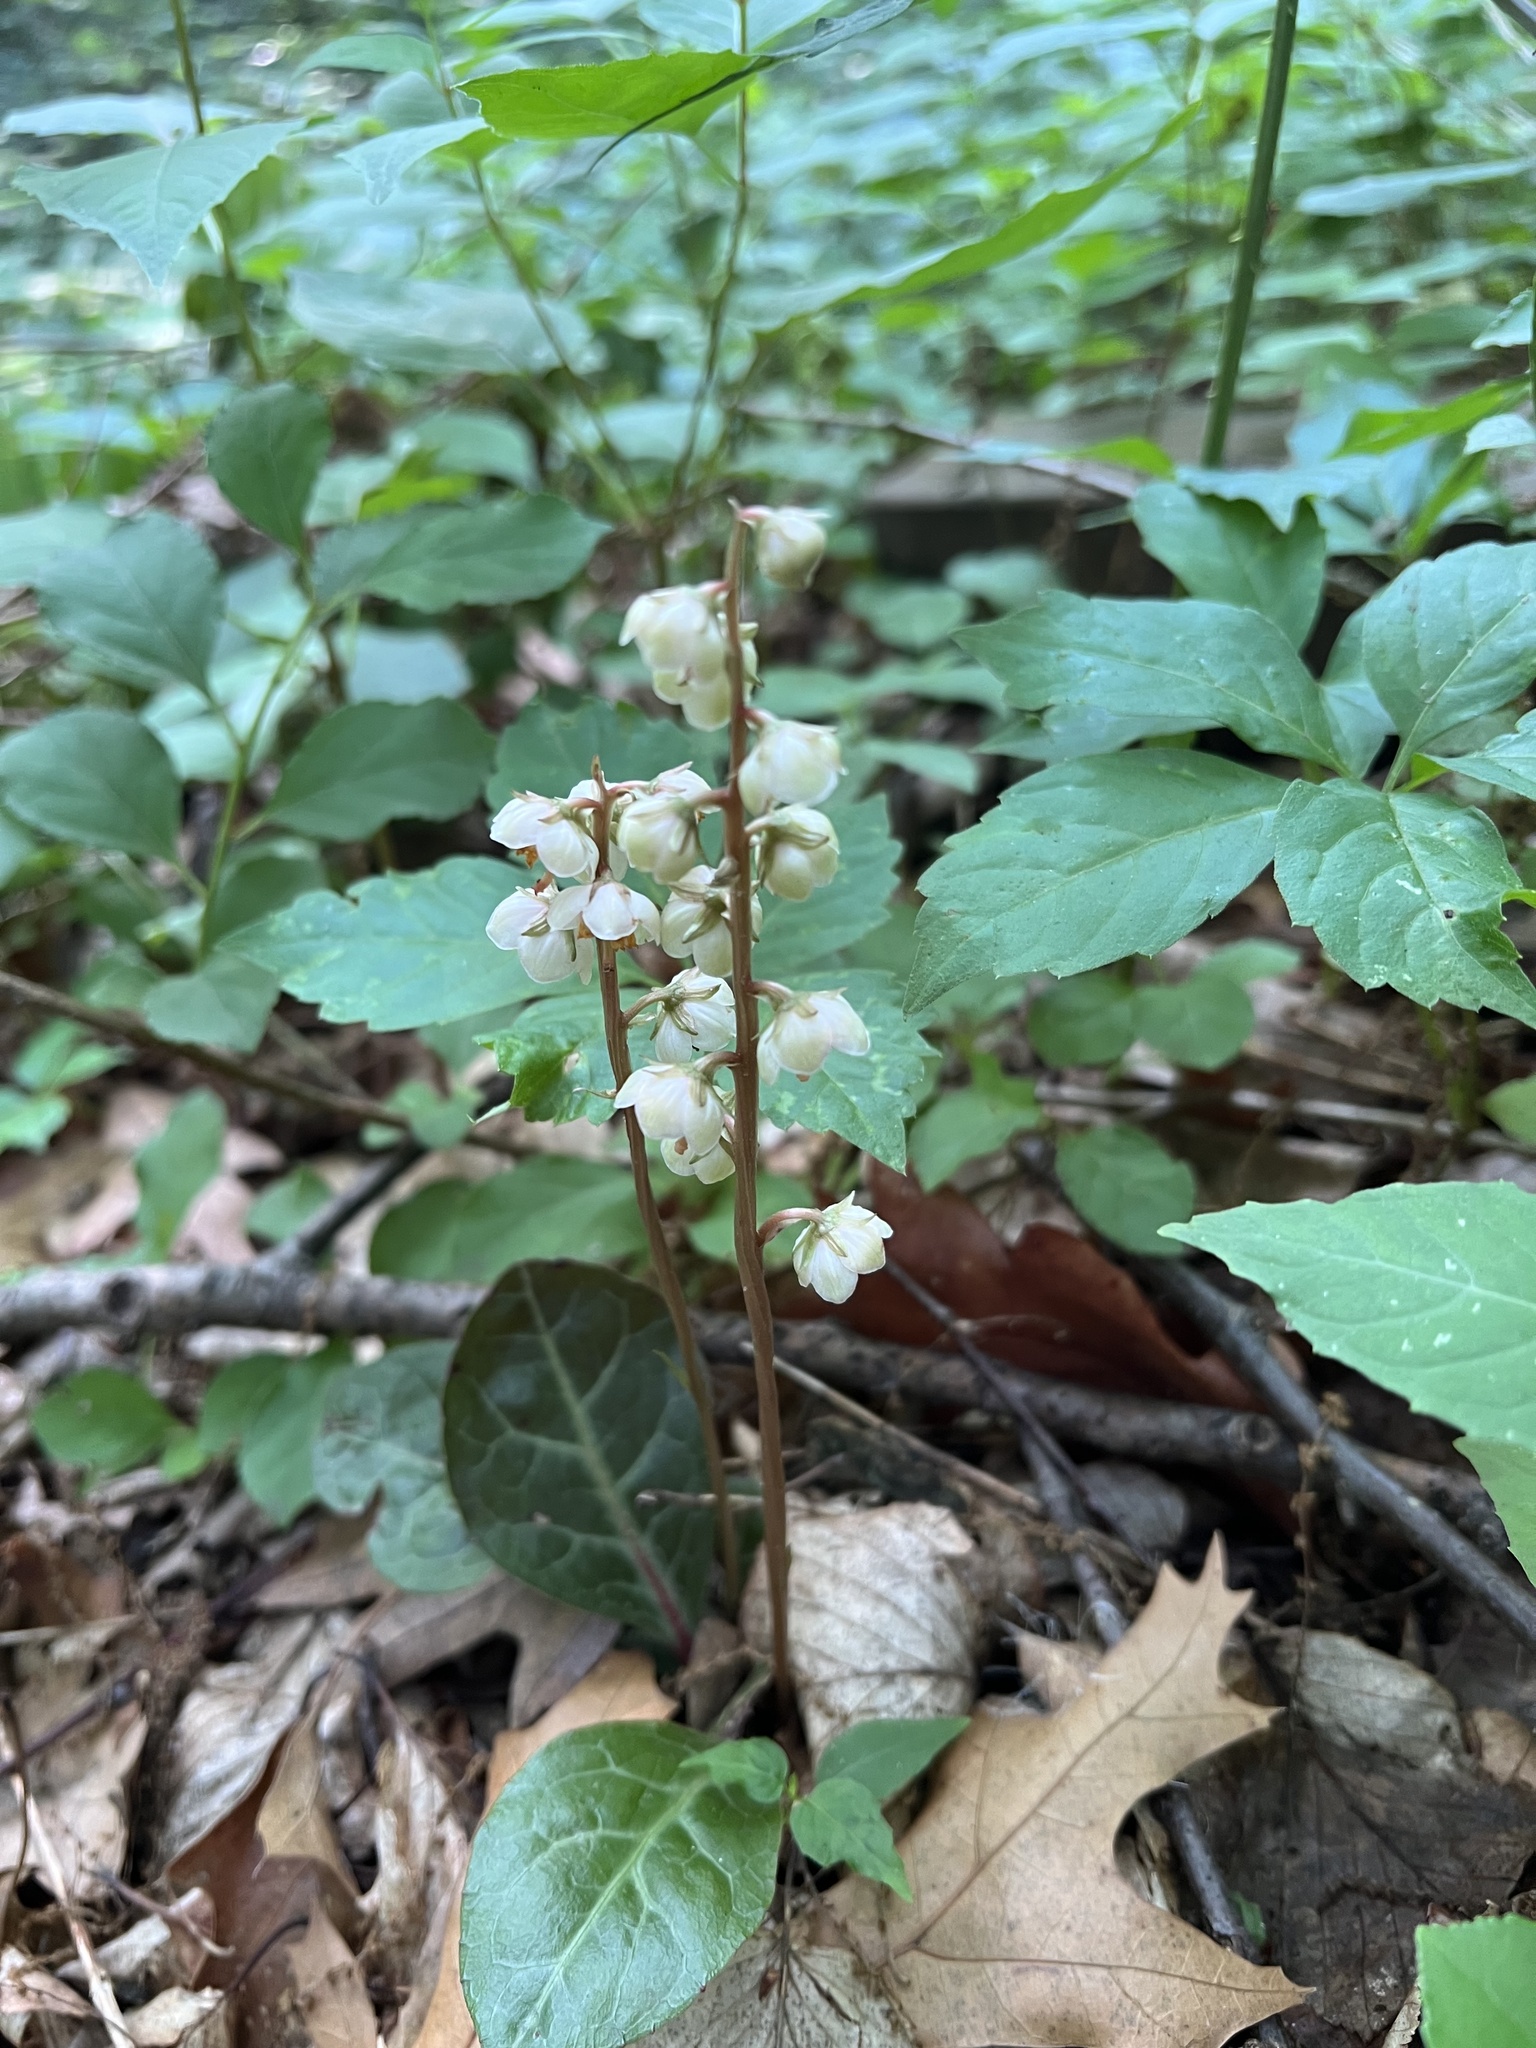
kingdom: Plantae
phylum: Tracheophyta
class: Magnoliopsida
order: Ericales
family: Ericaceae
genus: Pyrola
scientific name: Pyrola americana
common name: American wintergreen
